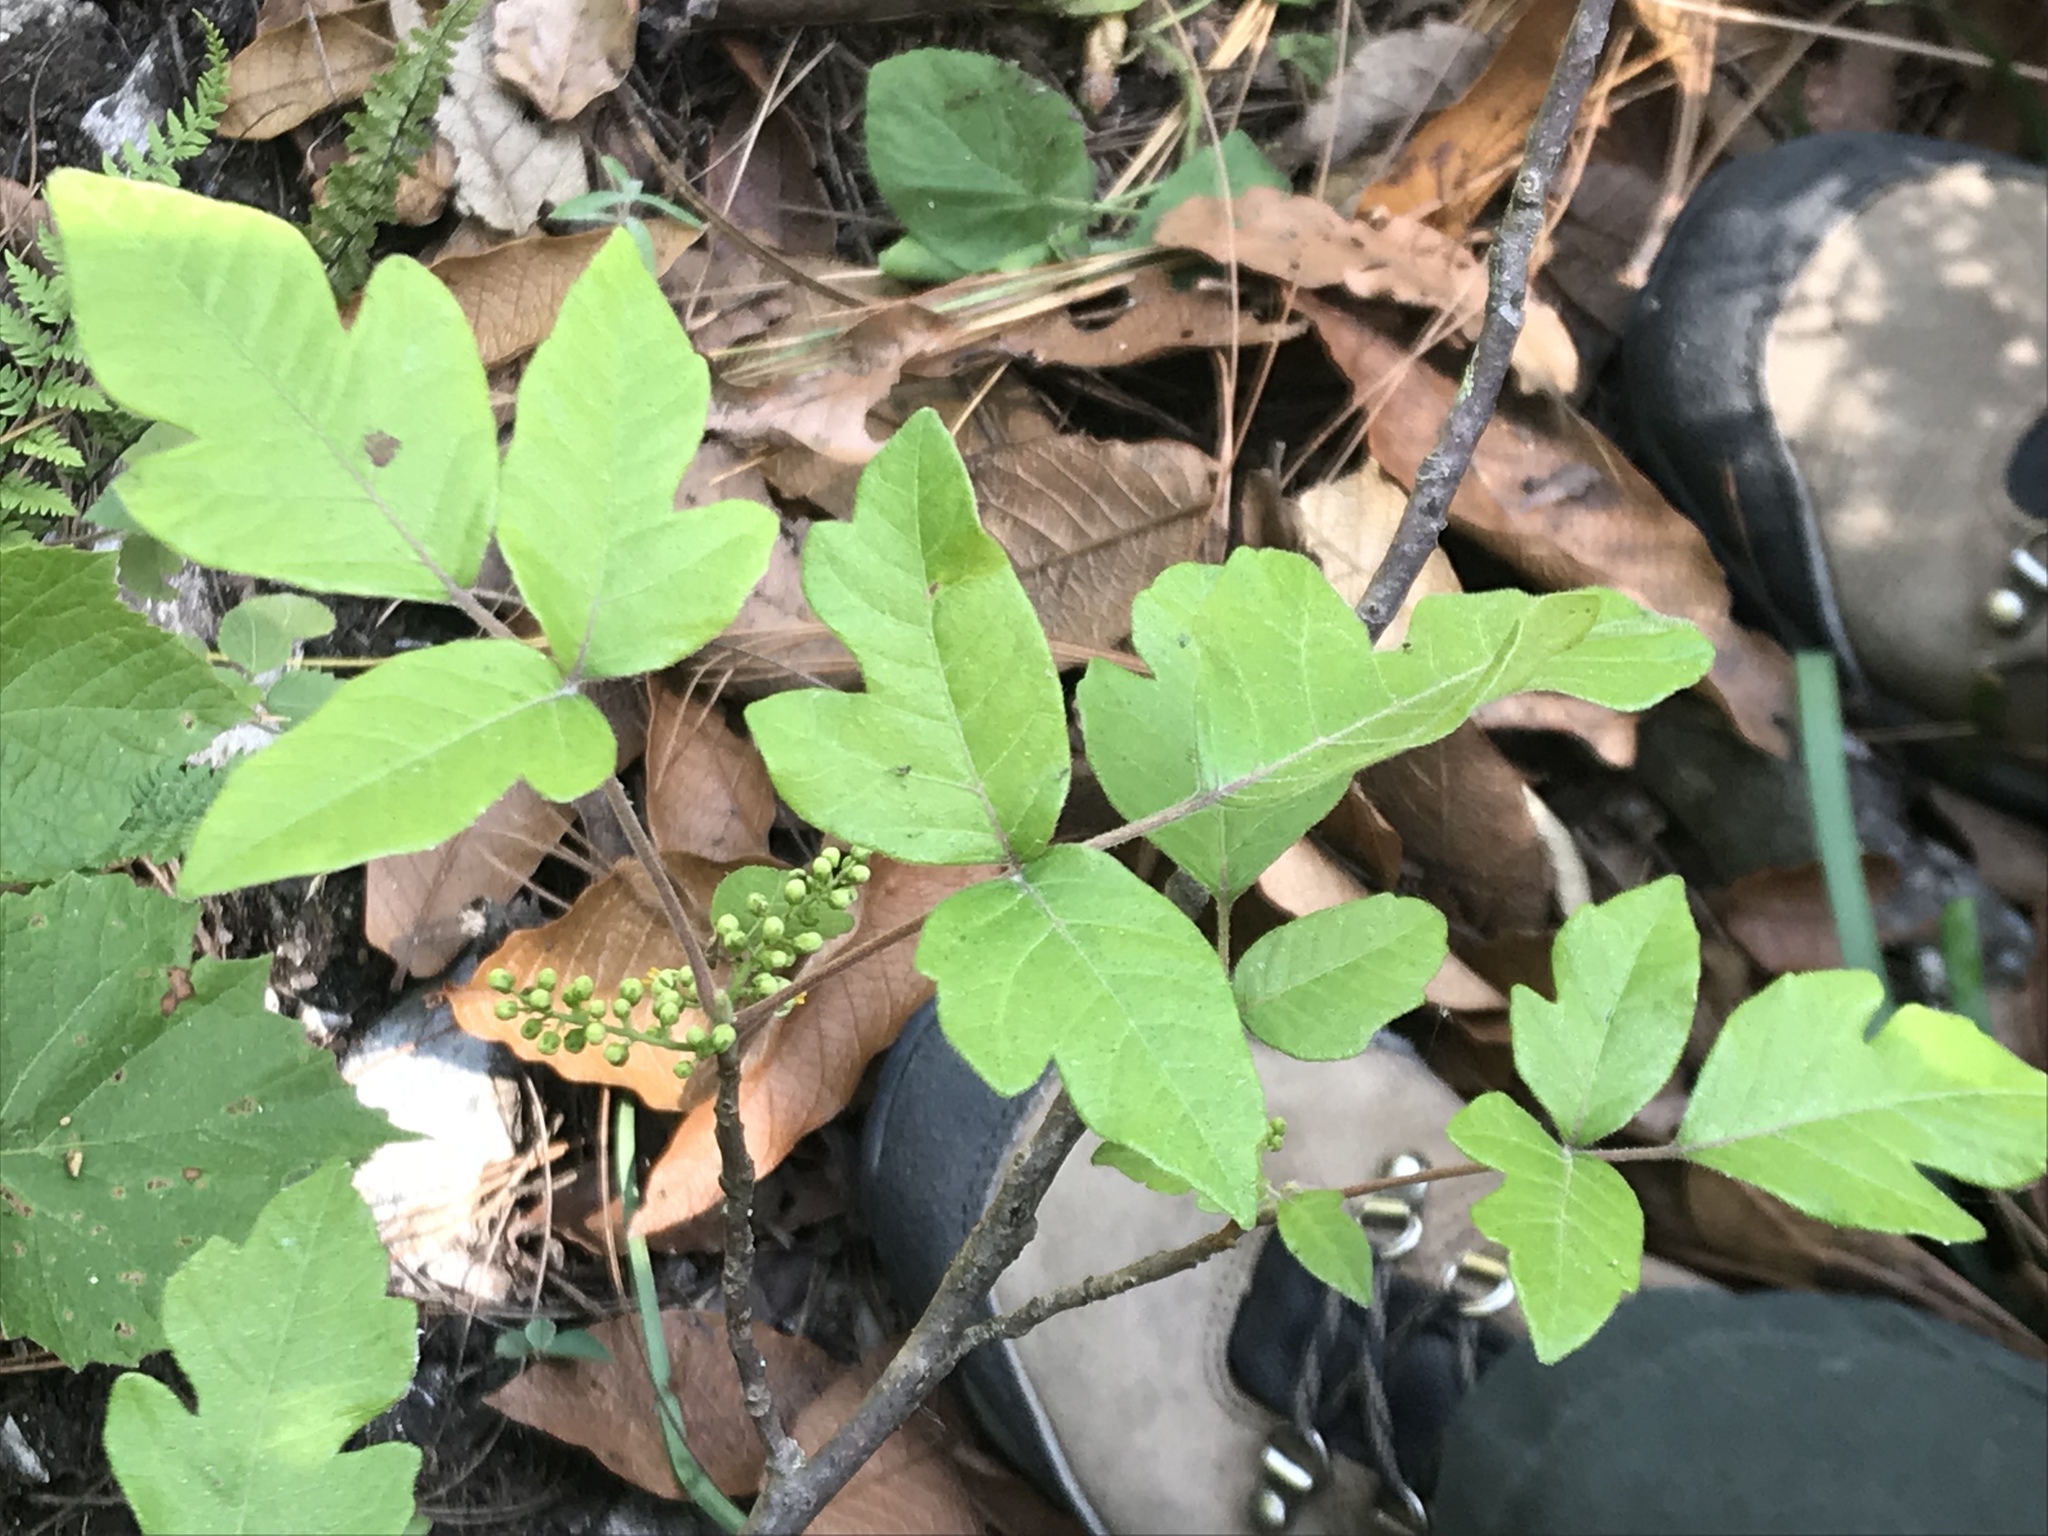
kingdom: Plantae
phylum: Tracheophyta
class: Magnoliopsida
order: Sapindales
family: Anacardiaceae
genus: Toxicodendron
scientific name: Toxicodendron radicans
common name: Poison ivy
